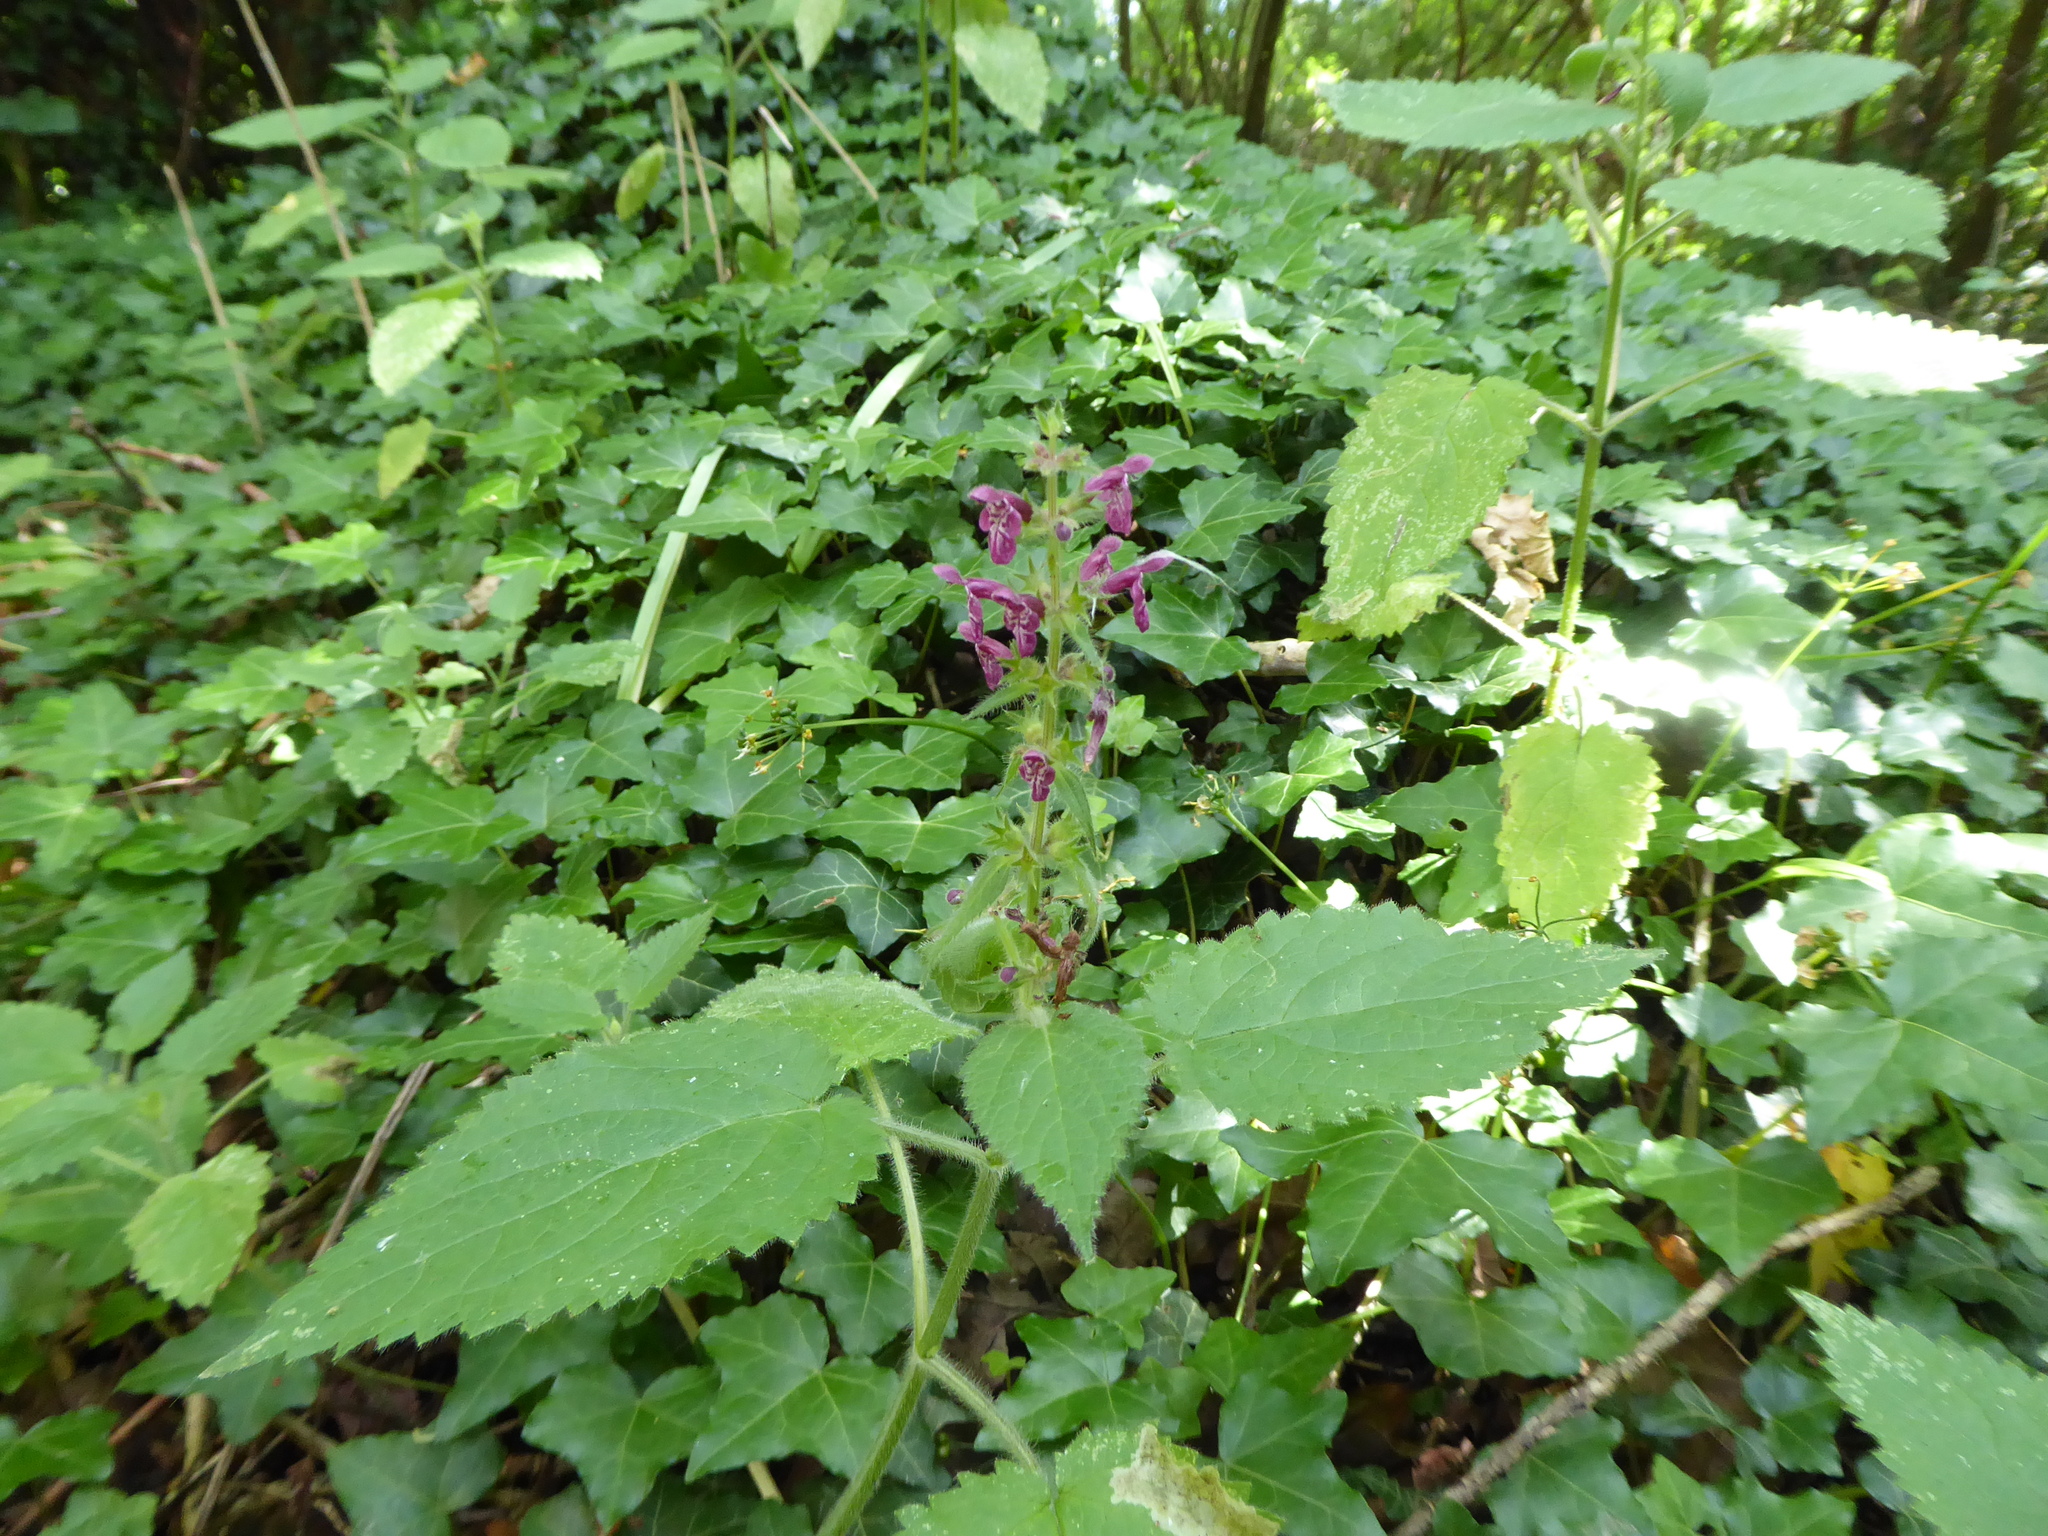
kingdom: Plantae
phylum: Tracheophyta
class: Magnoliopsida
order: Lamiales
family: Lamiaceae
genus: Stachys
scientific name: Stachys sylvatica
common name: Hedge woundwort
